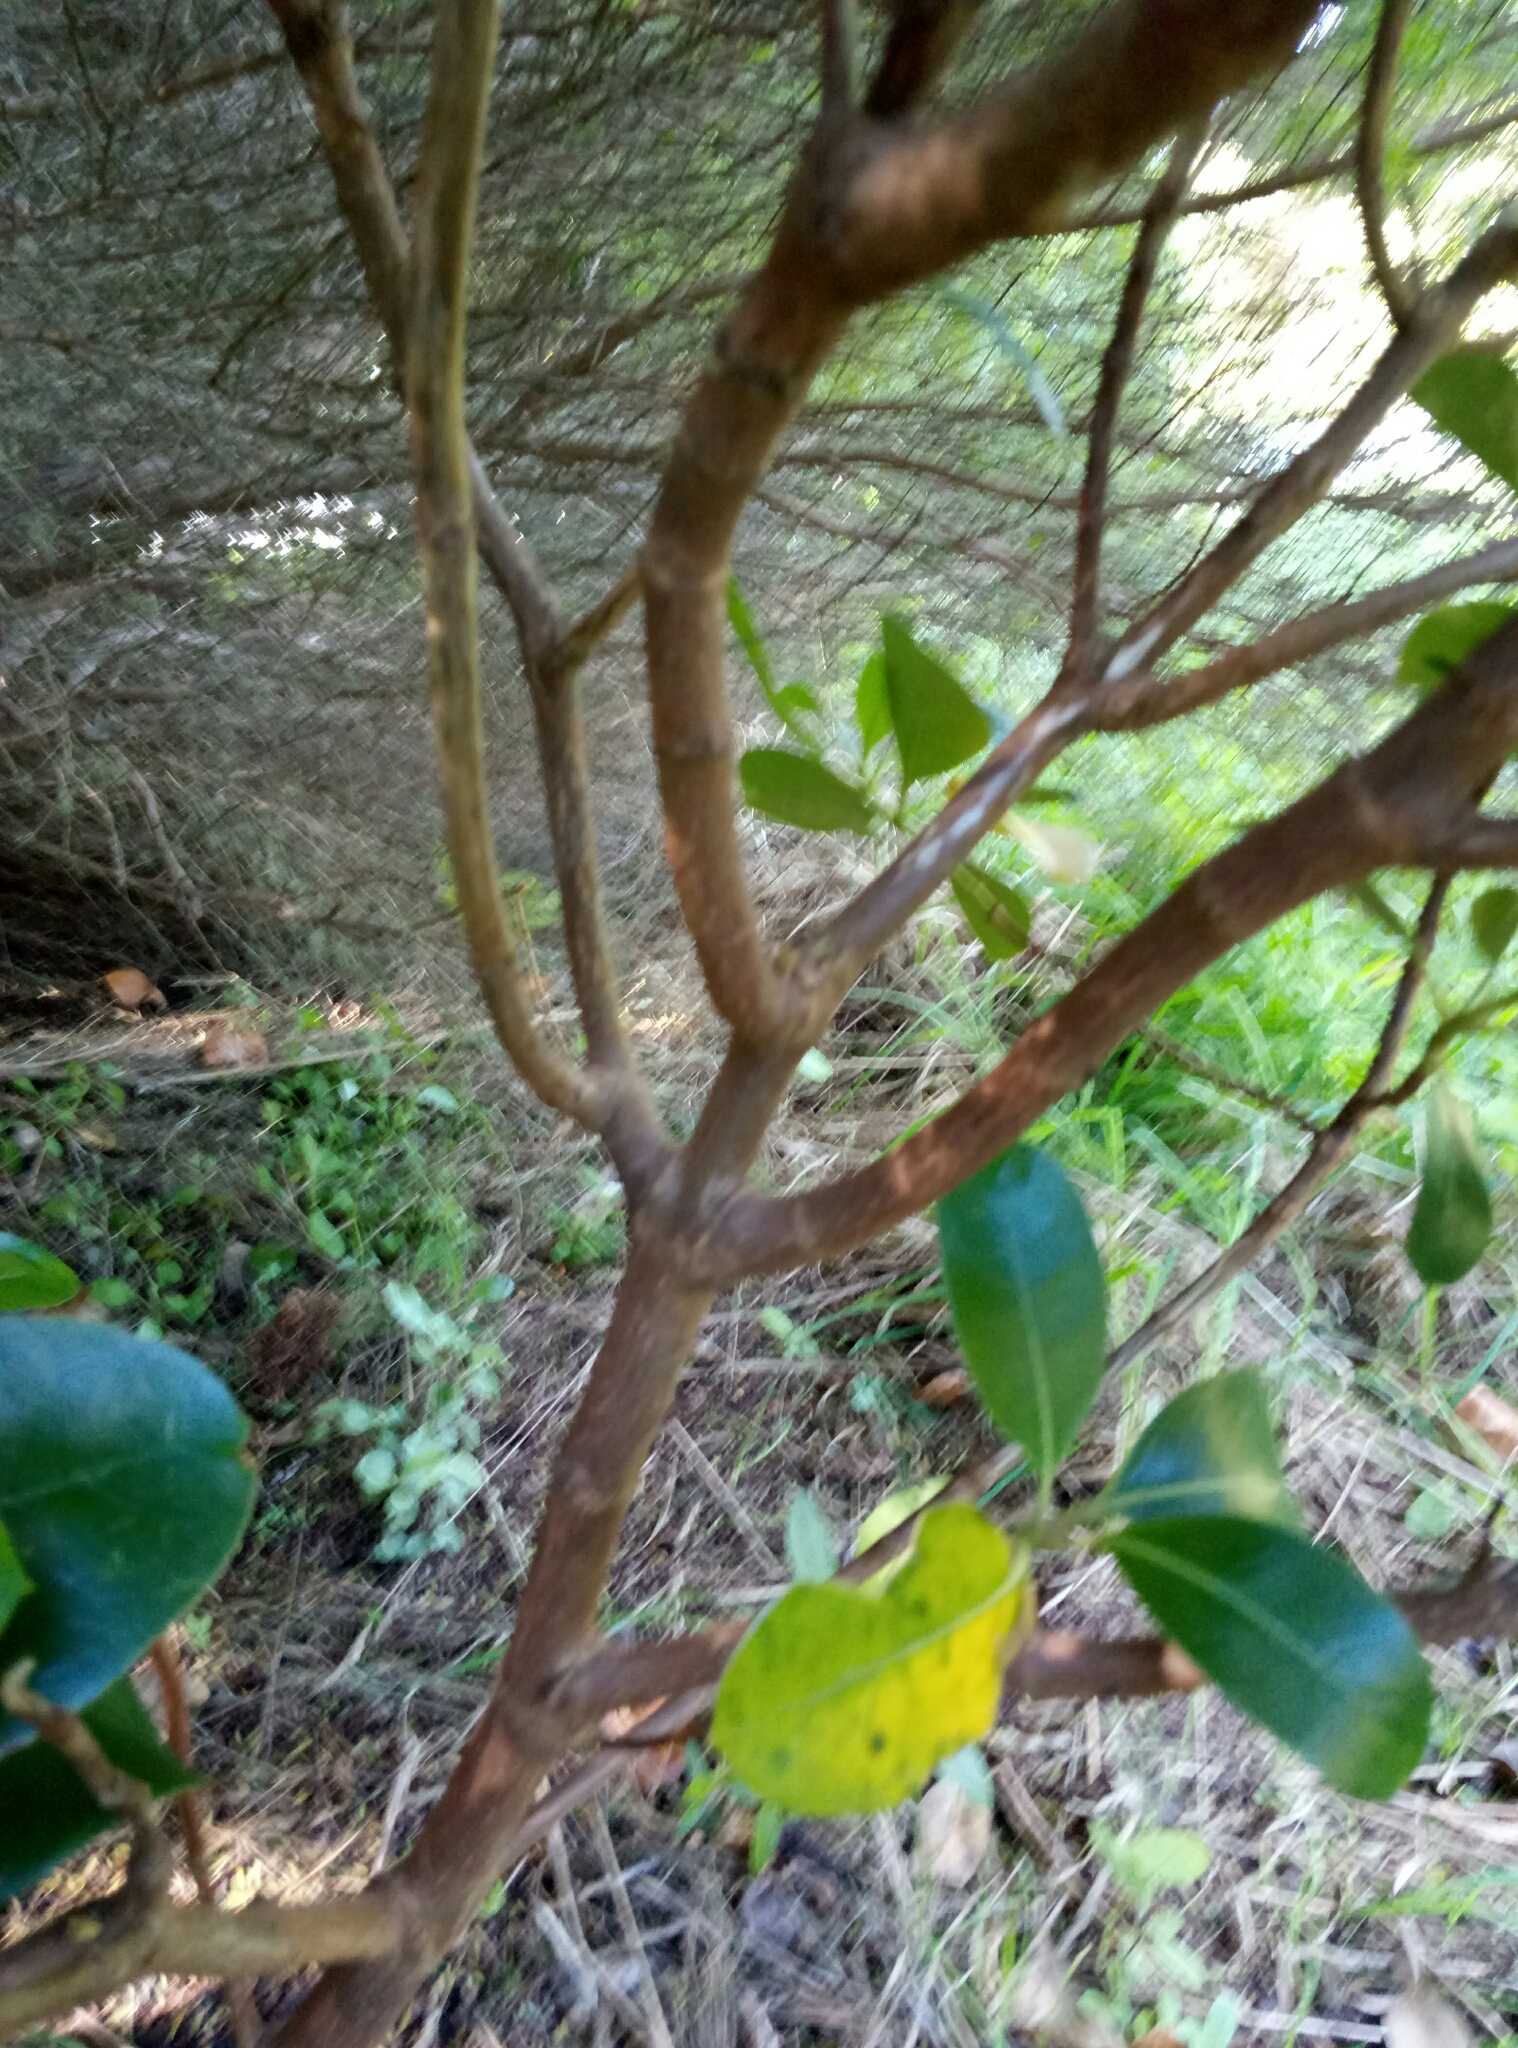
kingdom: Plantae
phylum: Tracheophyta
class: Magnoliopsida
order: Gentianales
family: Rubiaceae
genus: Coprosma
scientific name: Coprosma lucida
